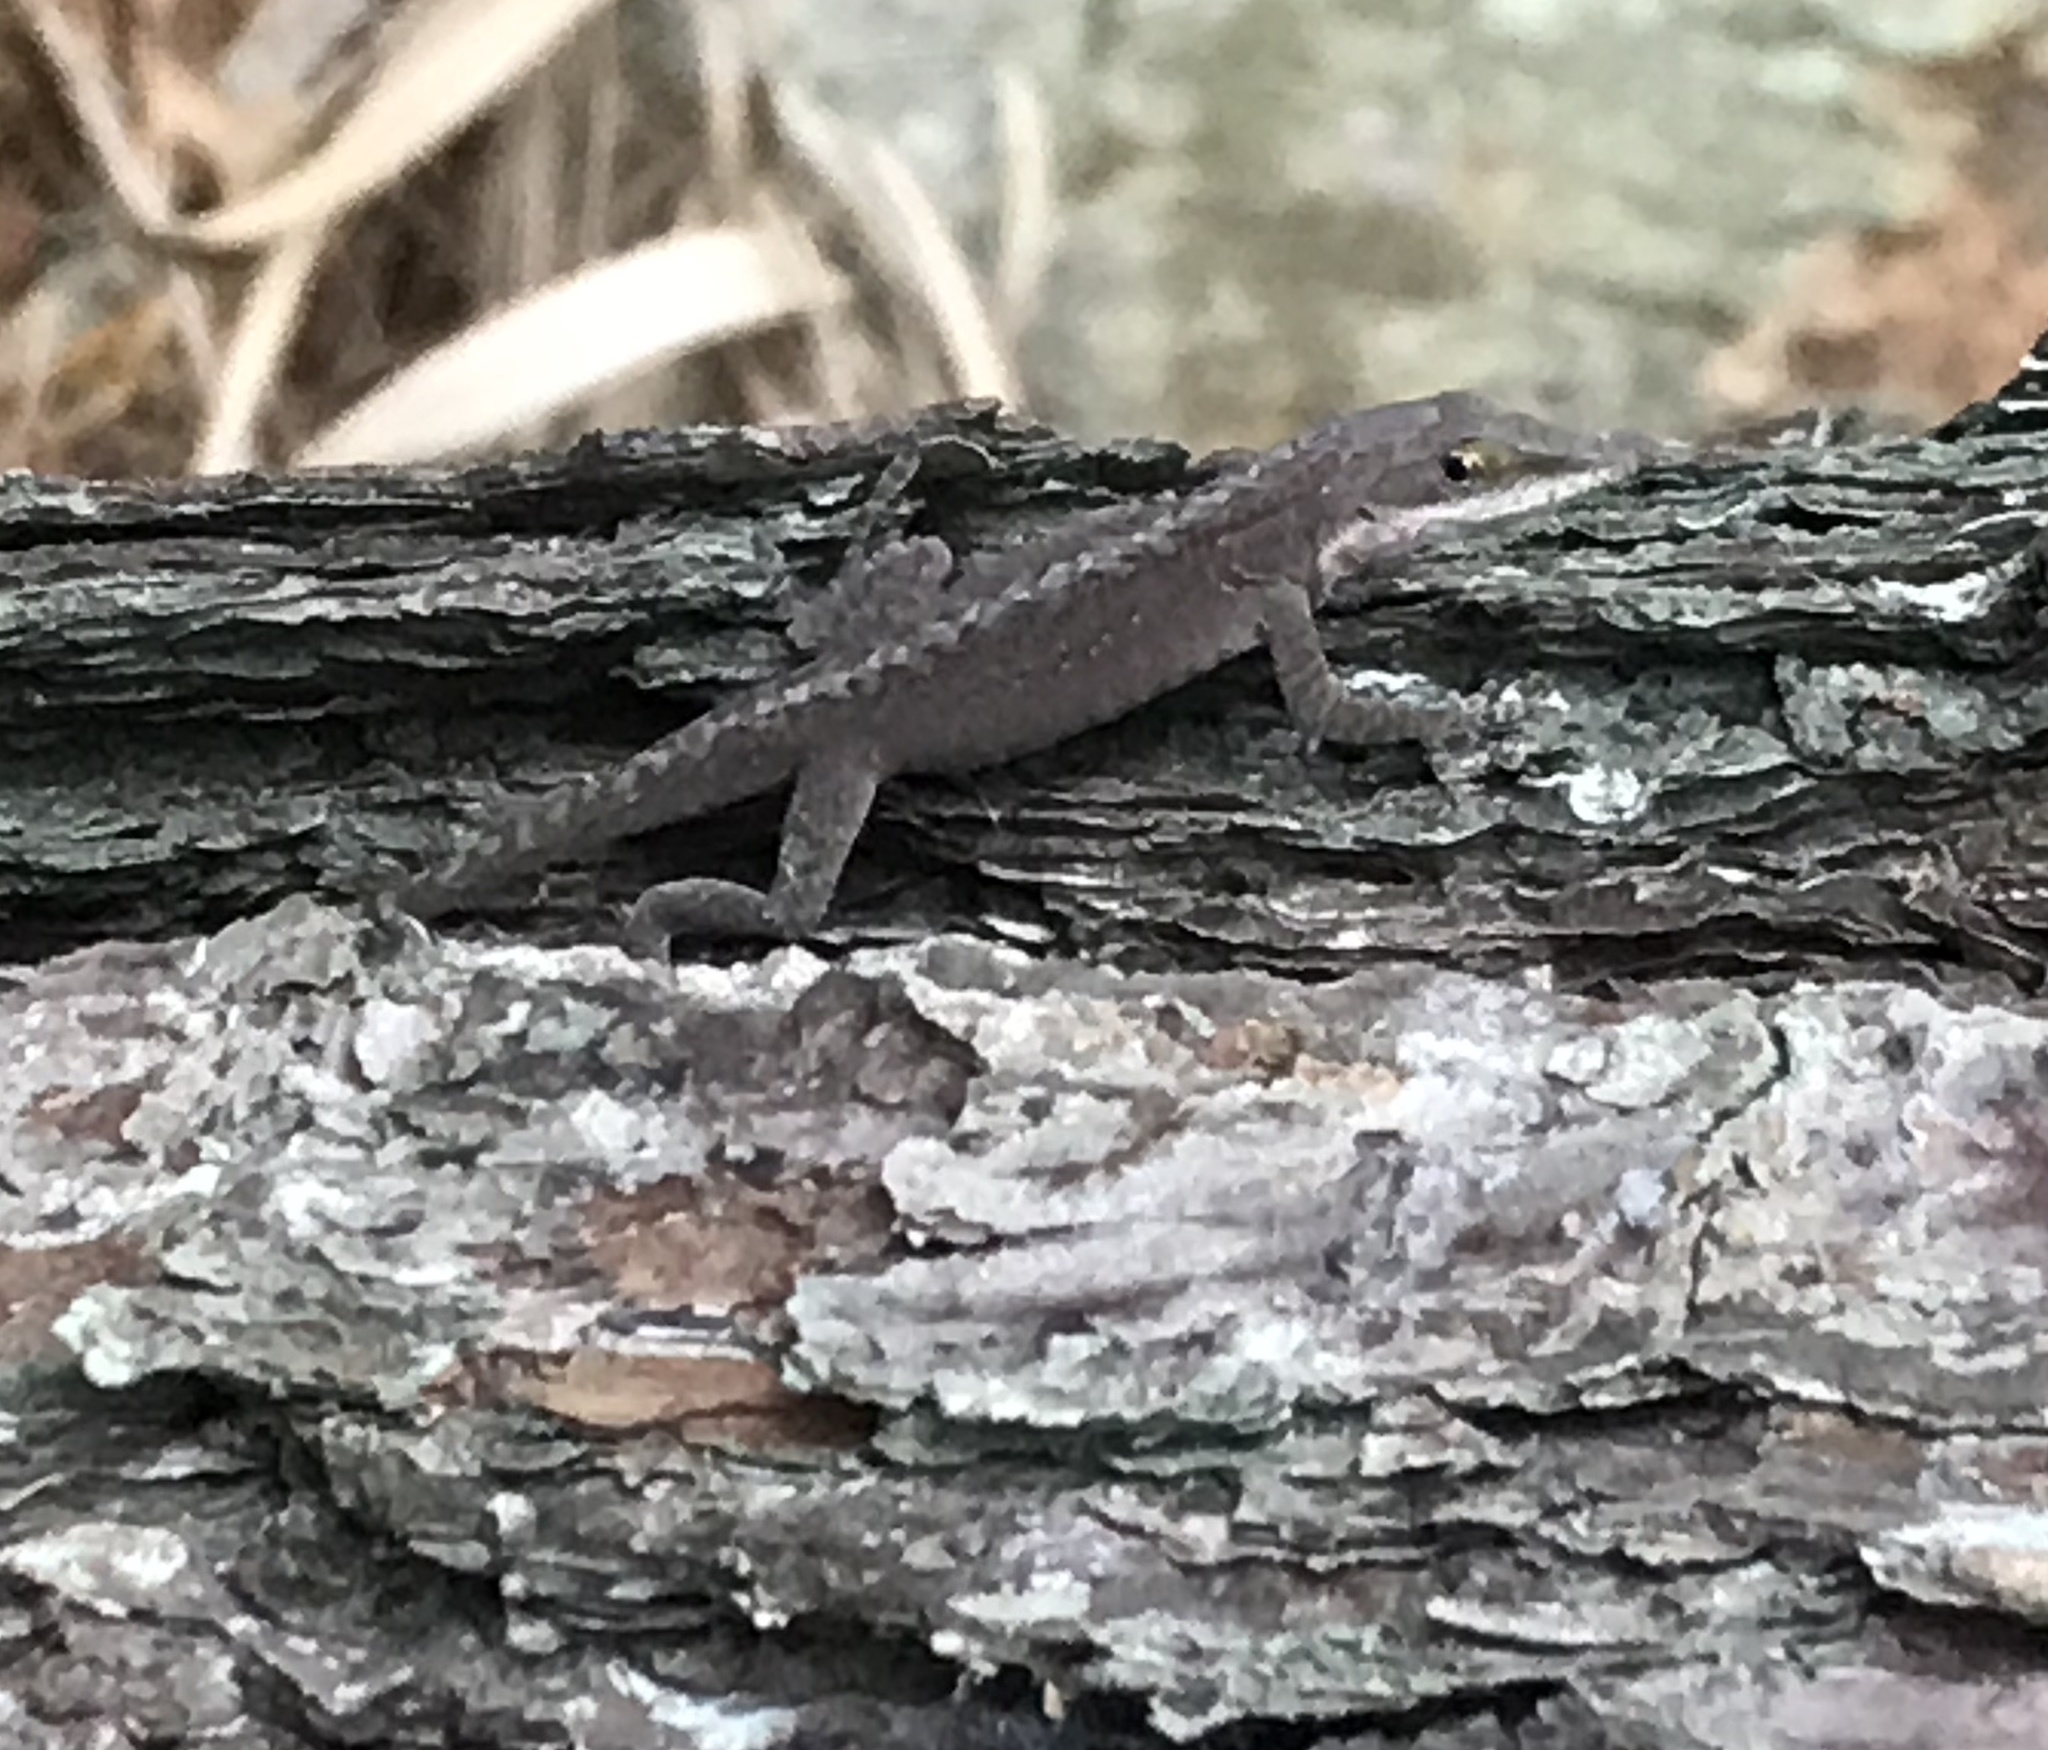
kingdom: Animalia
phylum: Chordata
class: Squamata
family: Dactyloidae
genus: Anolis
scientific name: Anolis carolinensis
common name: Green anole
